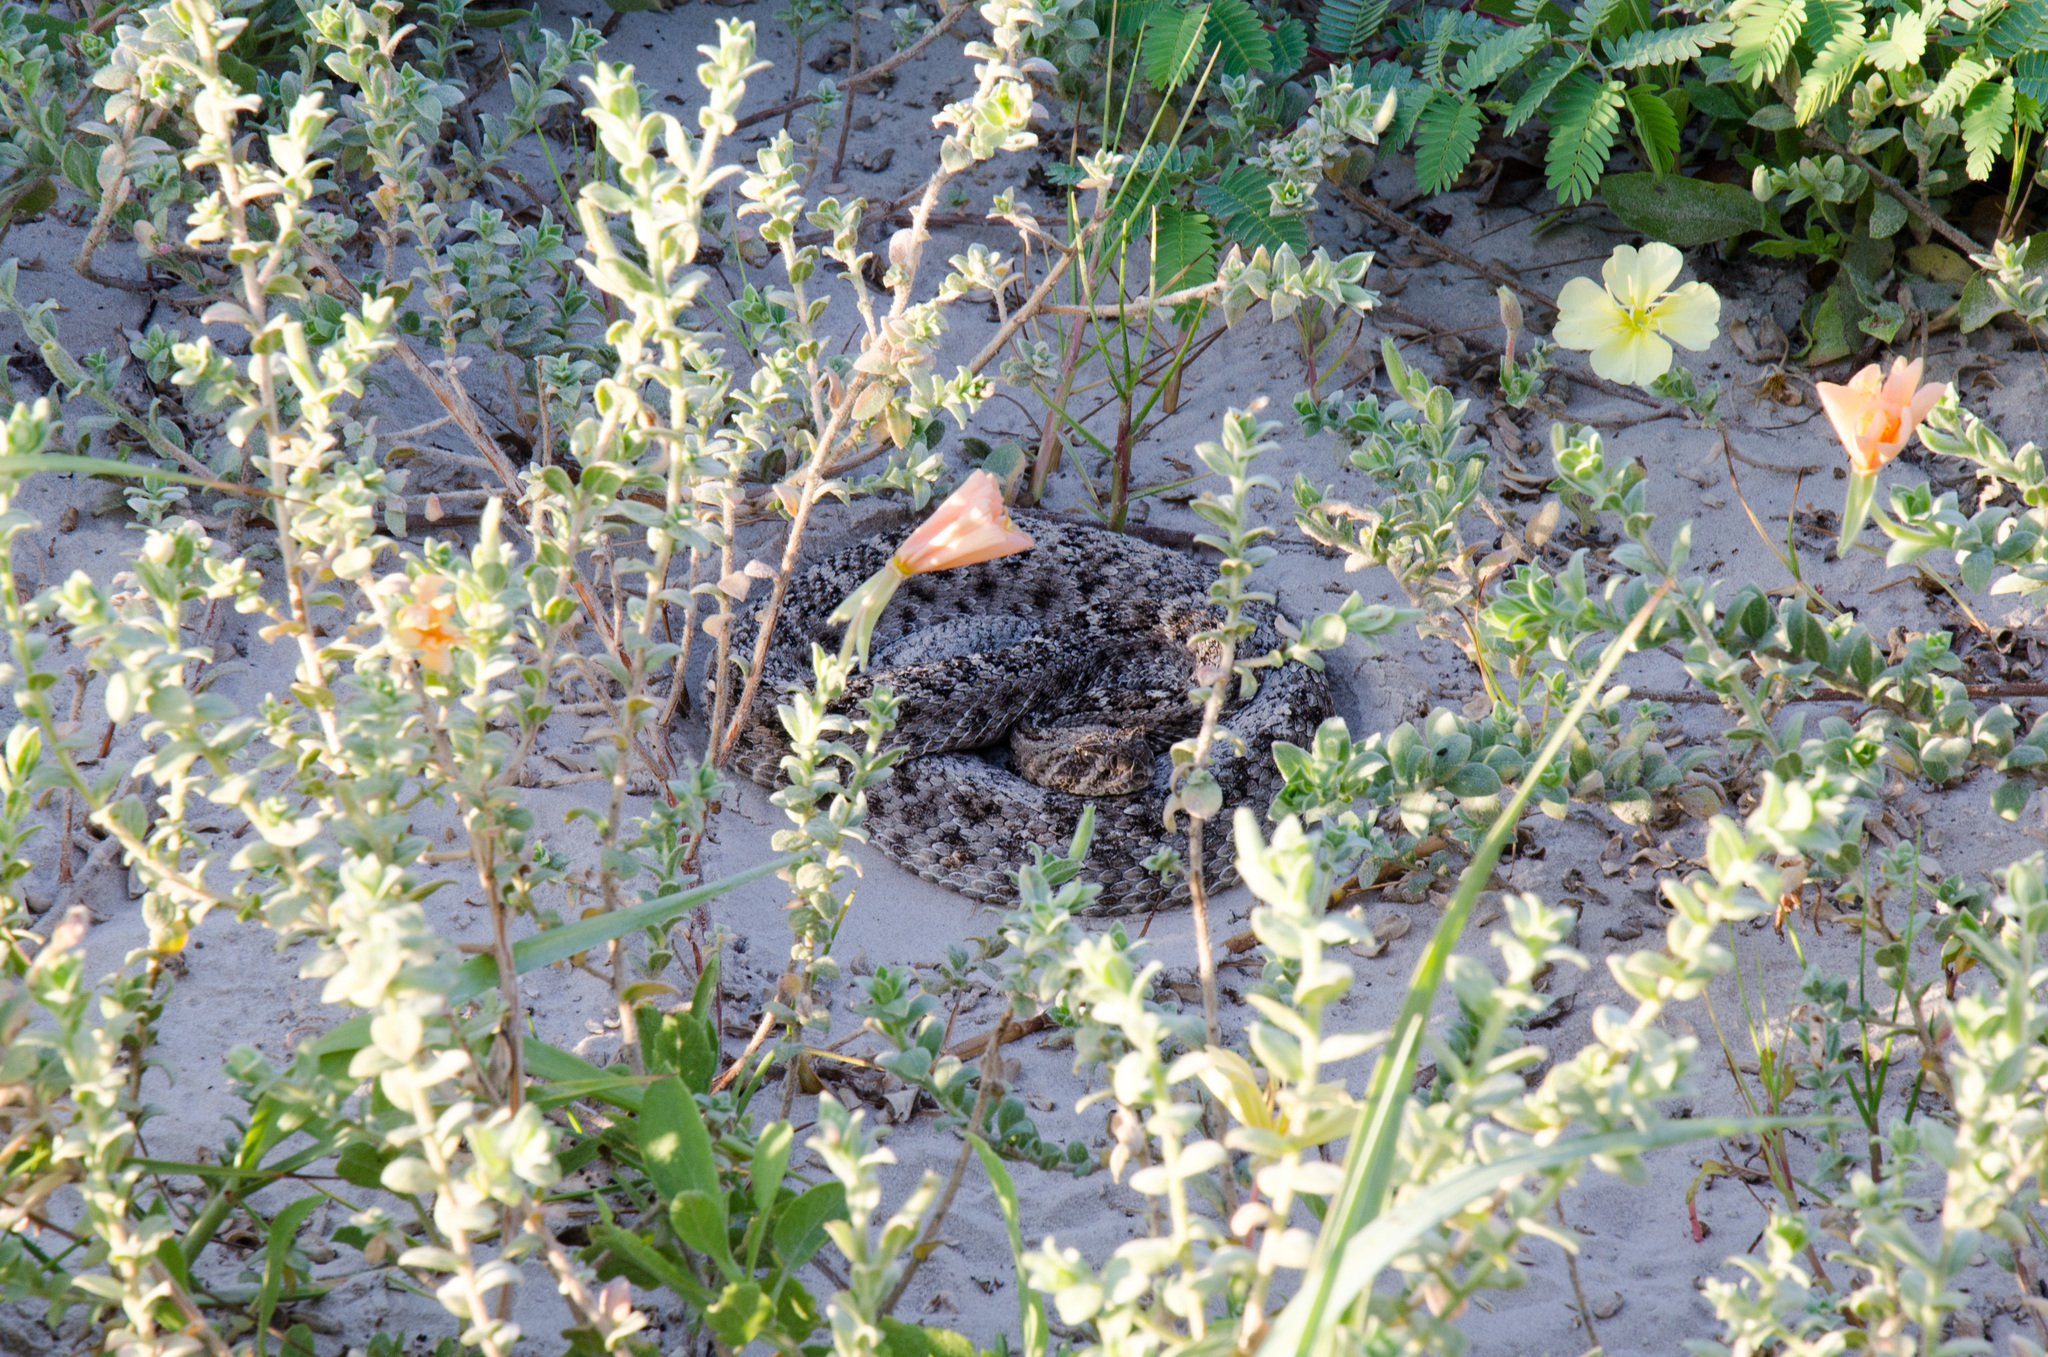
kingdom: Animalia
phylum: Chordata
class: Squamata
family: Viperidae
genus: Crotalus
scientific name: Crotalus atrox
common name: Western diamond-backed rattlesnake
